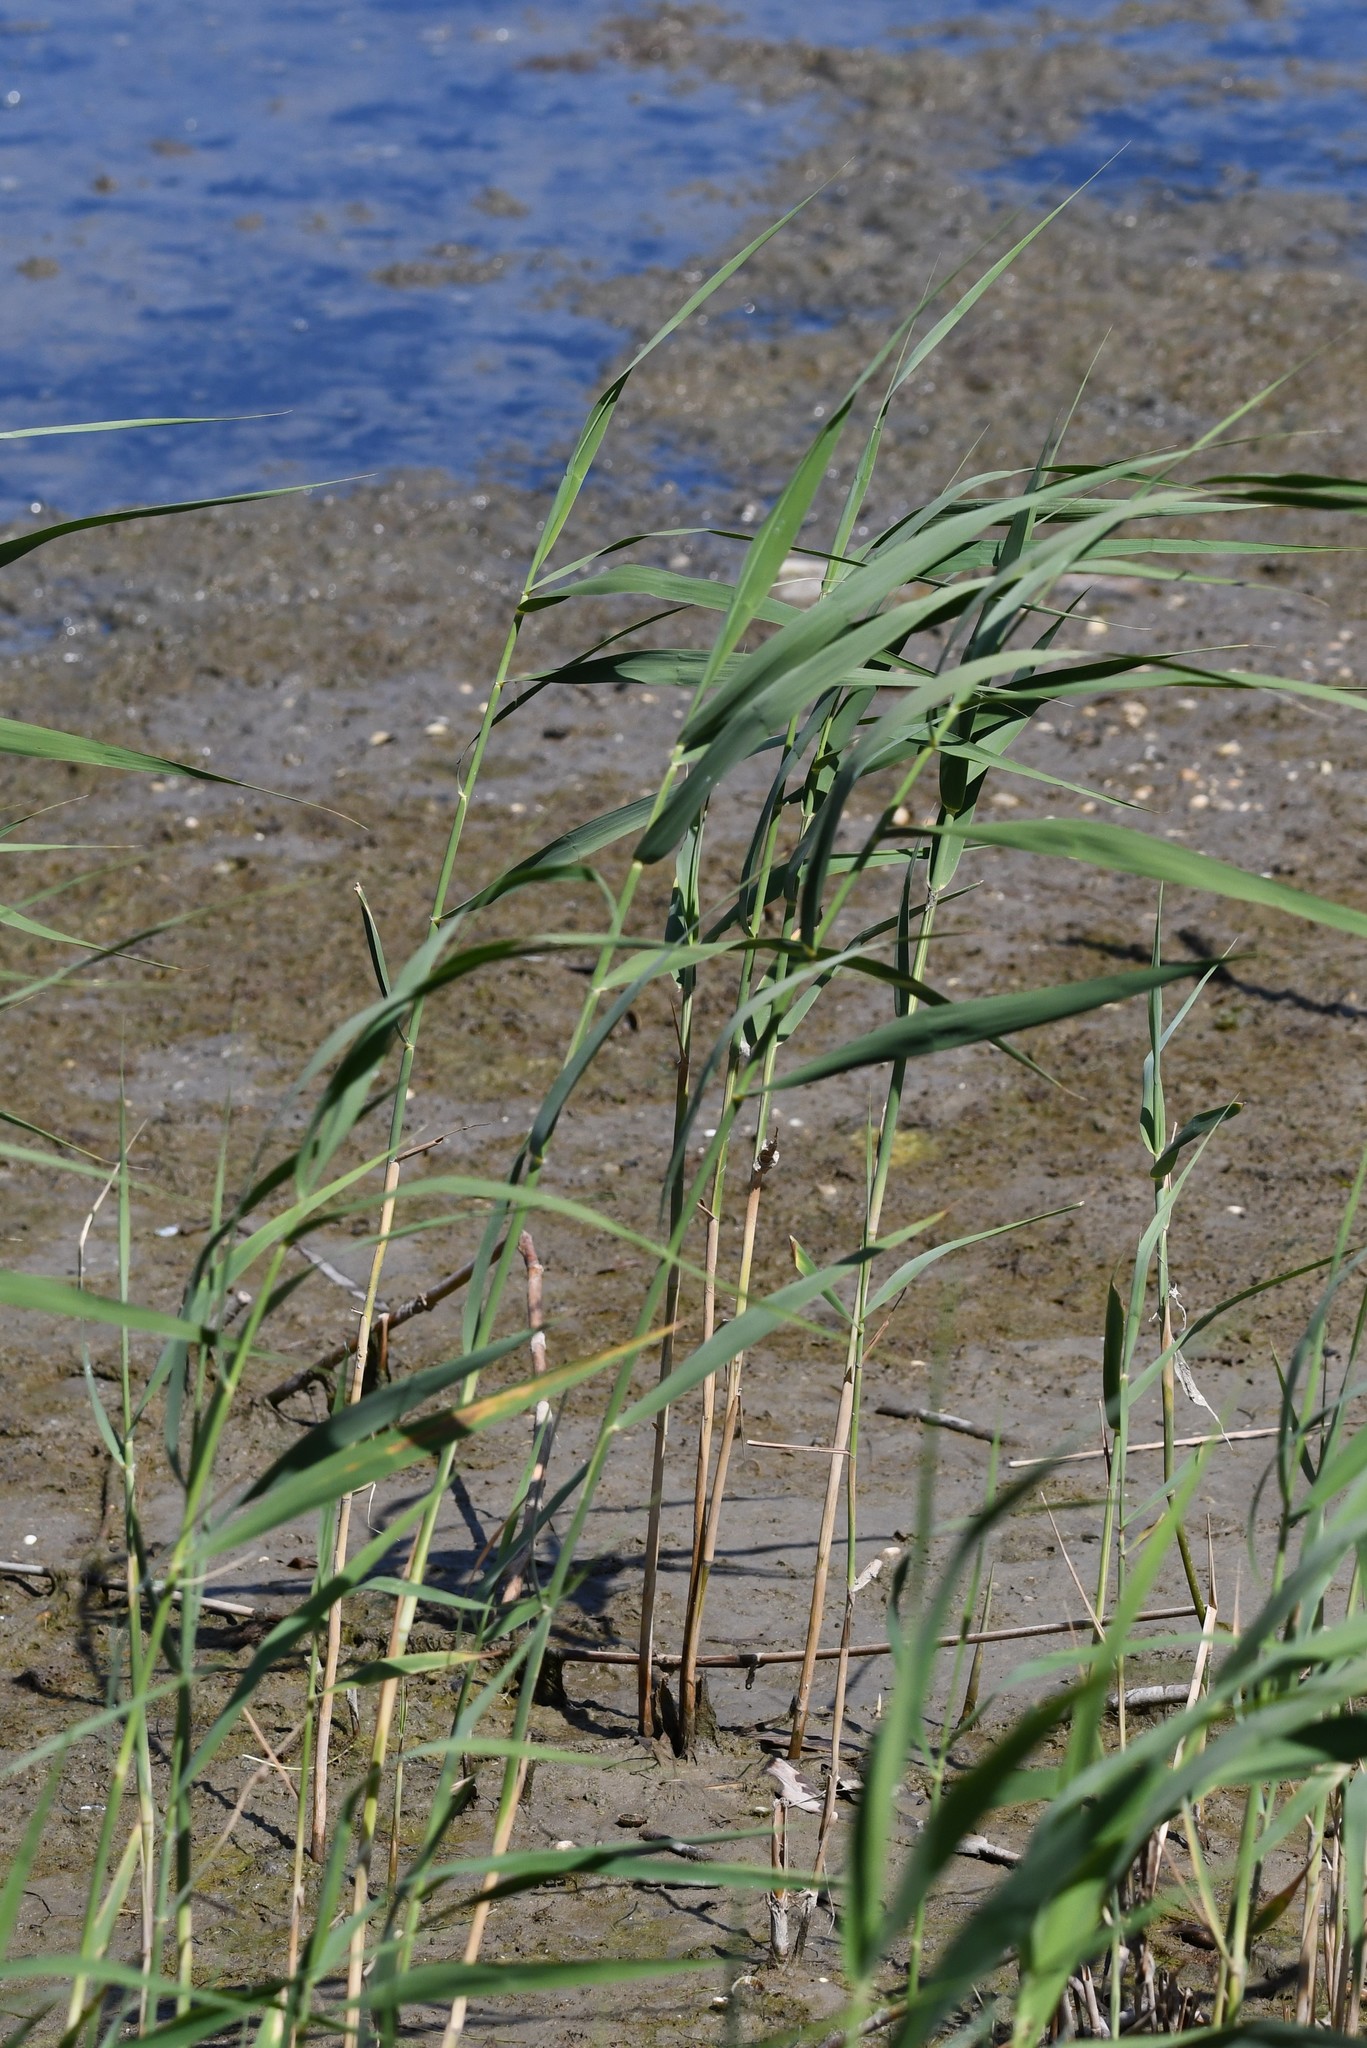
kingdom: Plantae
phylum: Tracheophyta
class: Liliopsida
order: Poales
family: Poaceae
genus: Phragmites
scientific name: Phragmites australis
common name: Common reed
